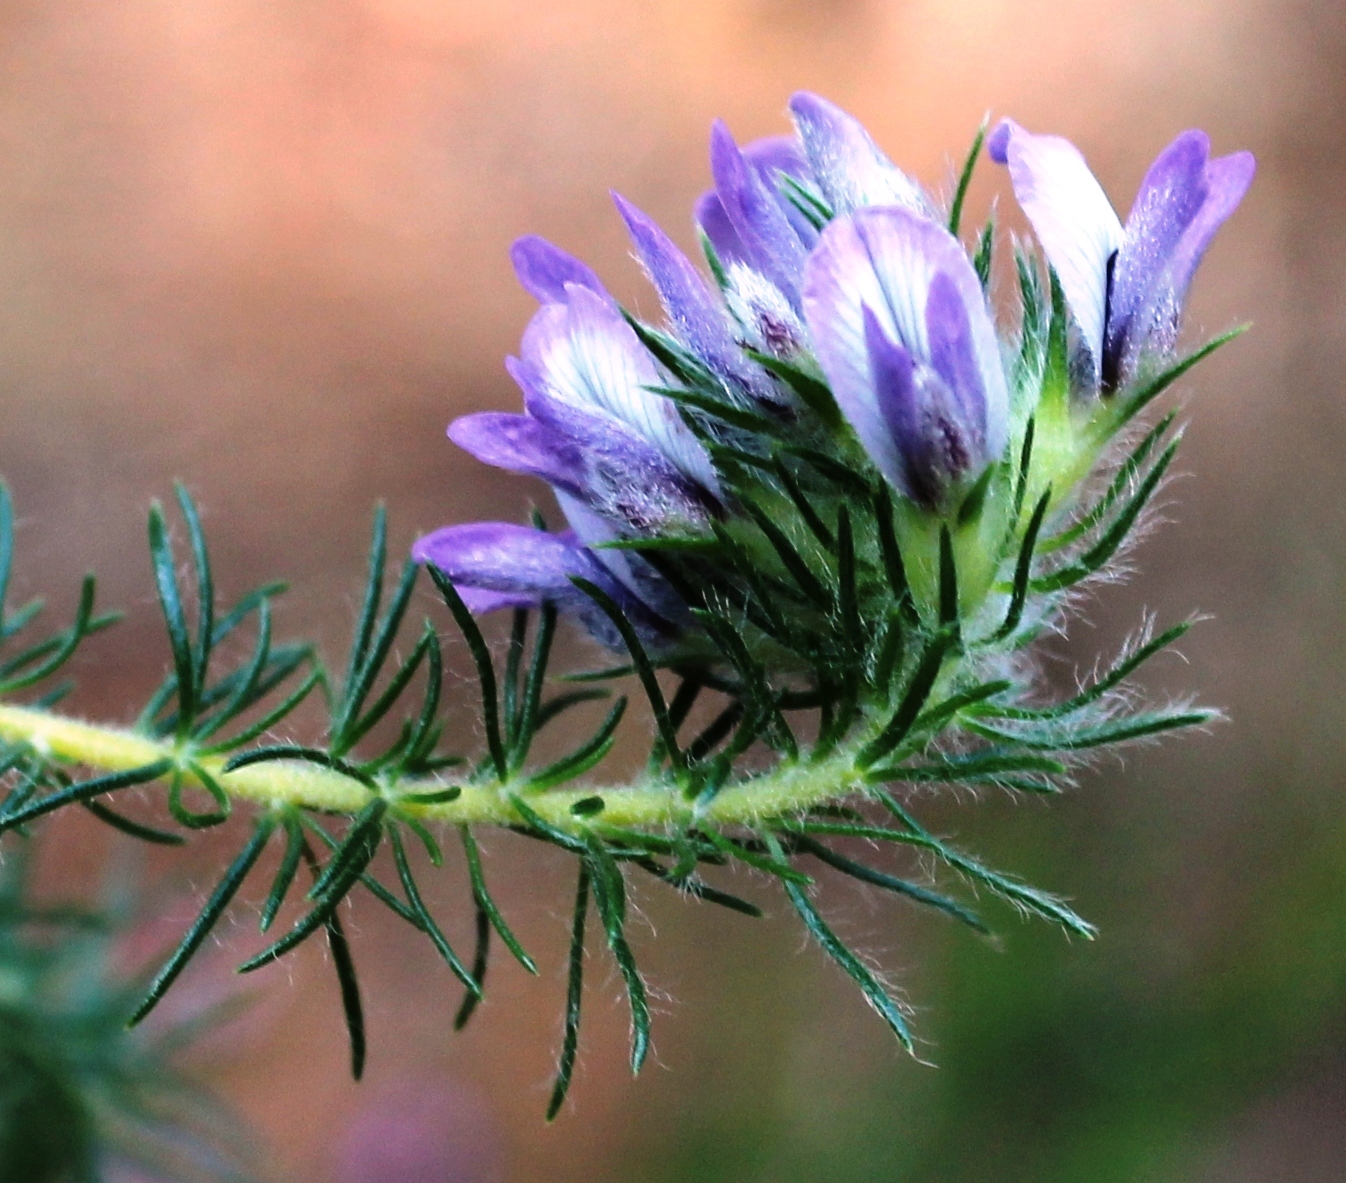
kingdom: Plantae
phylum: Tracheophyta
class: Magnoliopsida
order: Fabales
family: Fabaceae
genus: Aspalathus
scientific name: Aspalathus cephalotes
